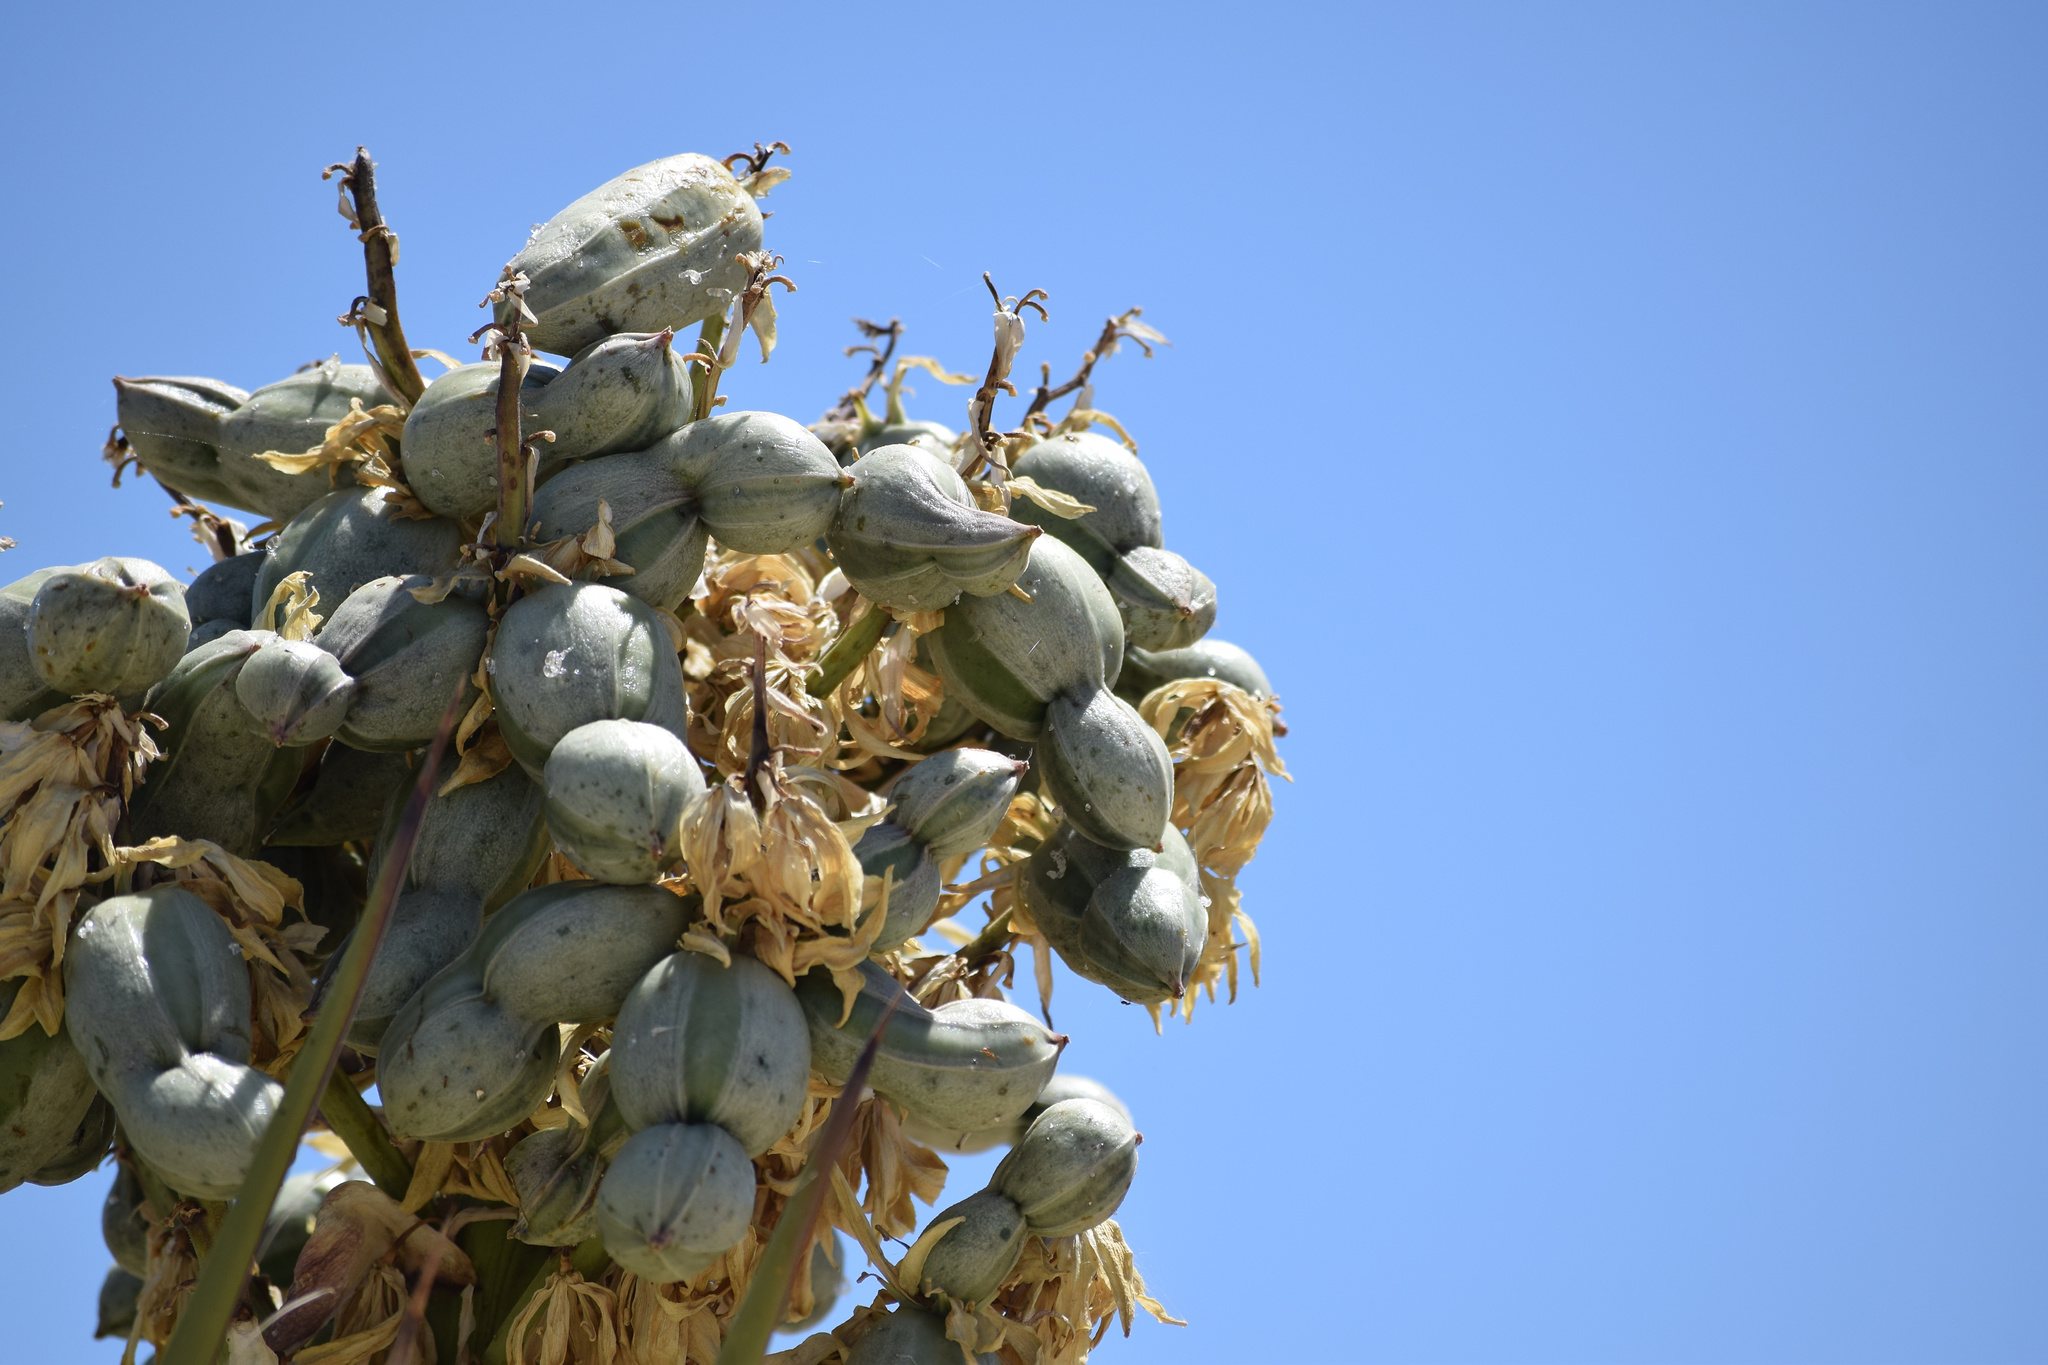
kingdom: Plantae
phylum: Tracheophyta
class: Liliopsida
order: Asparagales
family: Asparagaceae
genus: Yucca
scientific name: Yucca schidigera
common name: Mojave yucca
